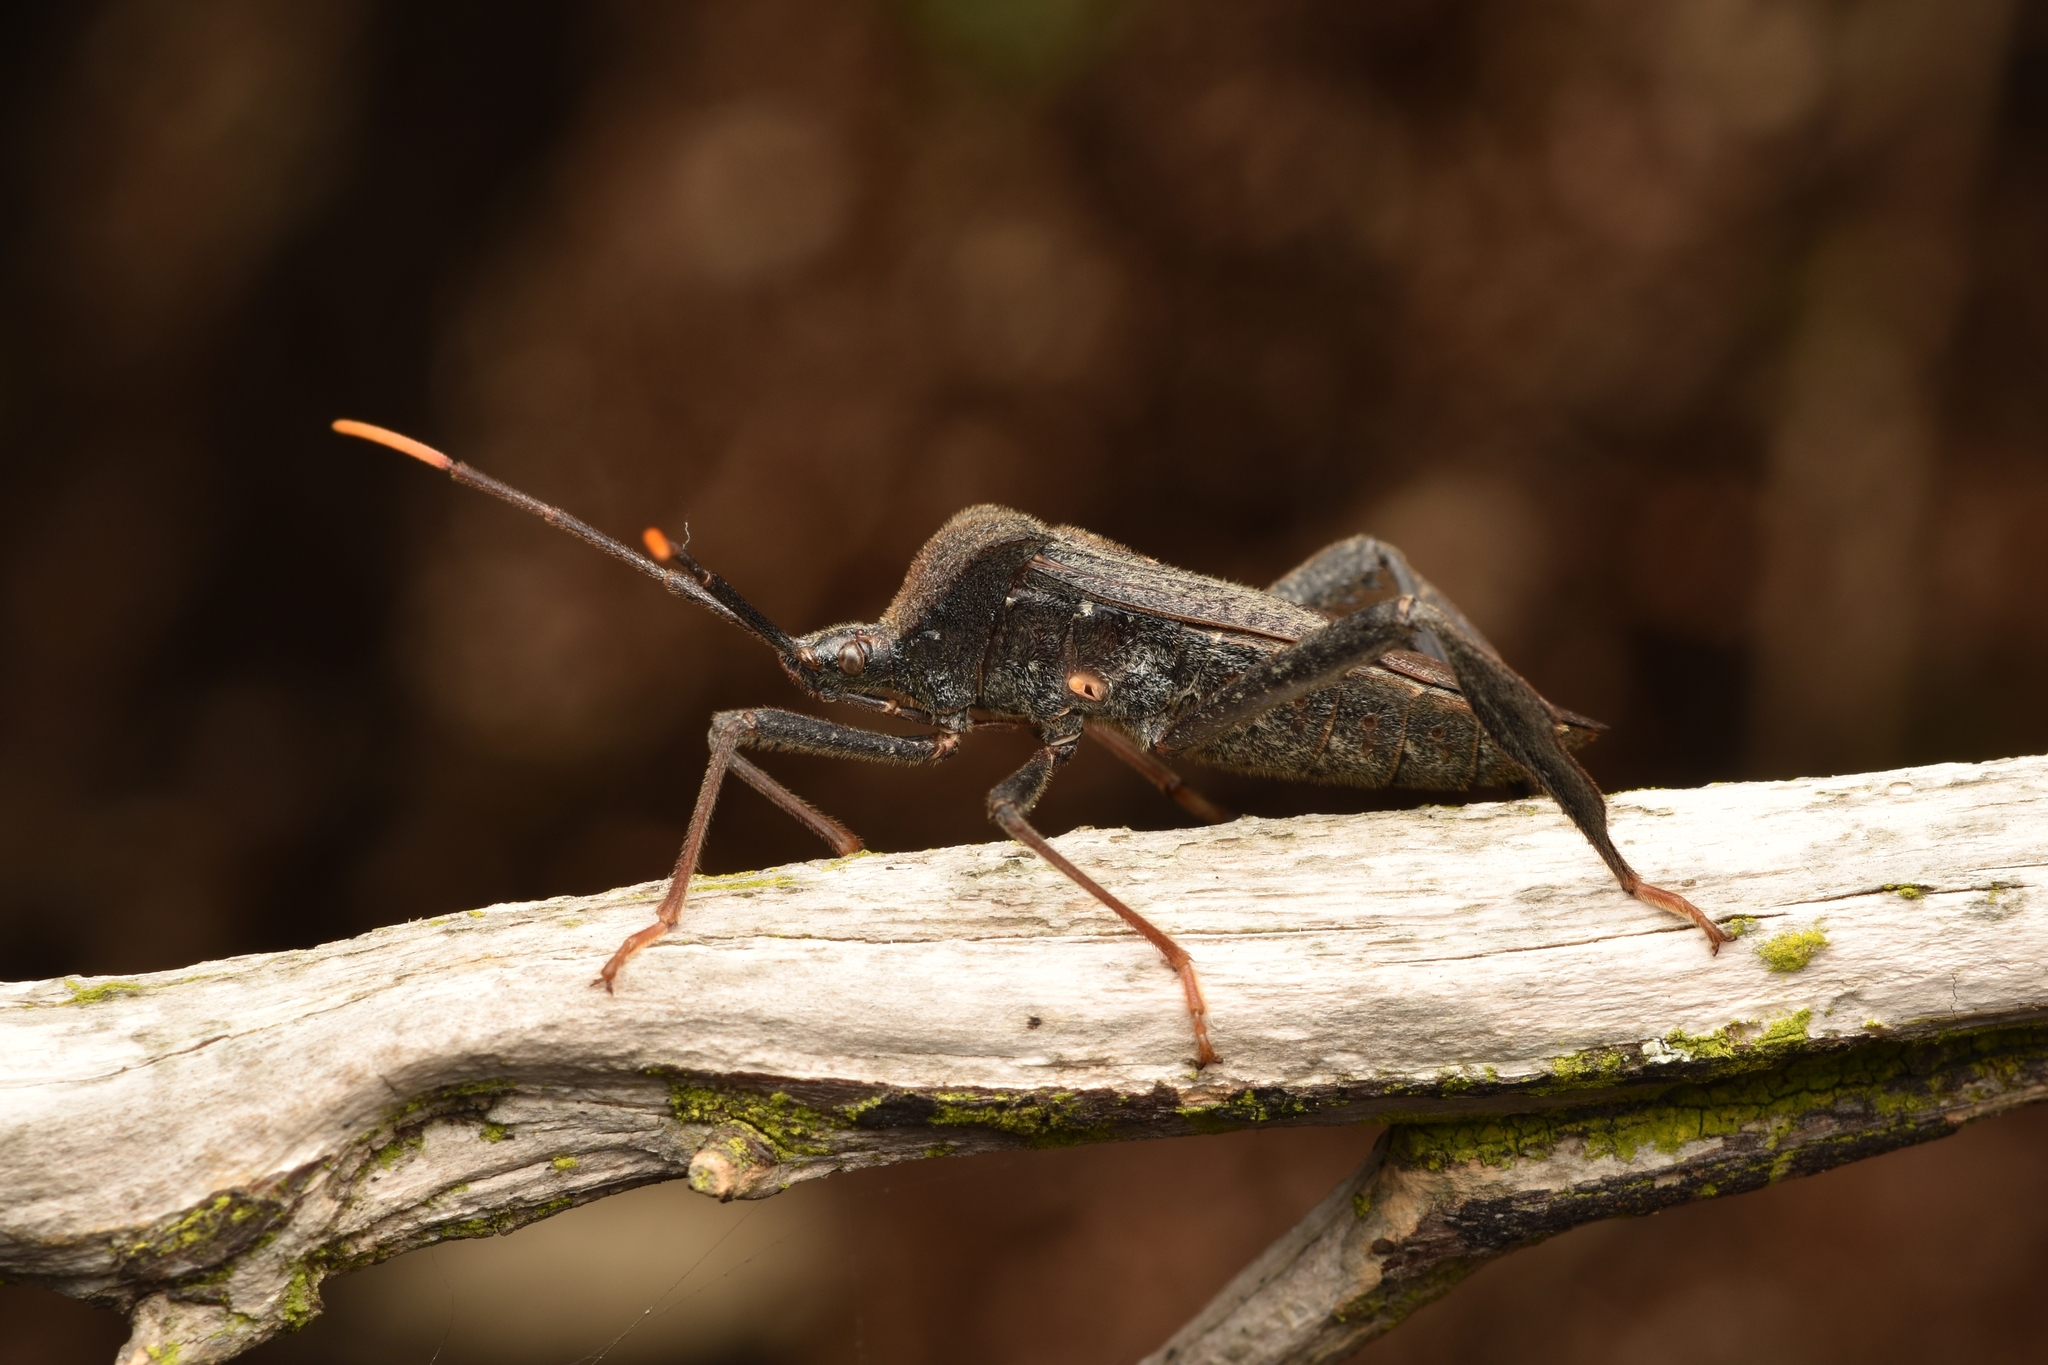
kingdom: Animalia
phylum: Arthropoda
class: Insecta
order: Hemiptera
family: Coreidae
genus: Acanthocephala
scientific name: Acanthocephala terminalis
